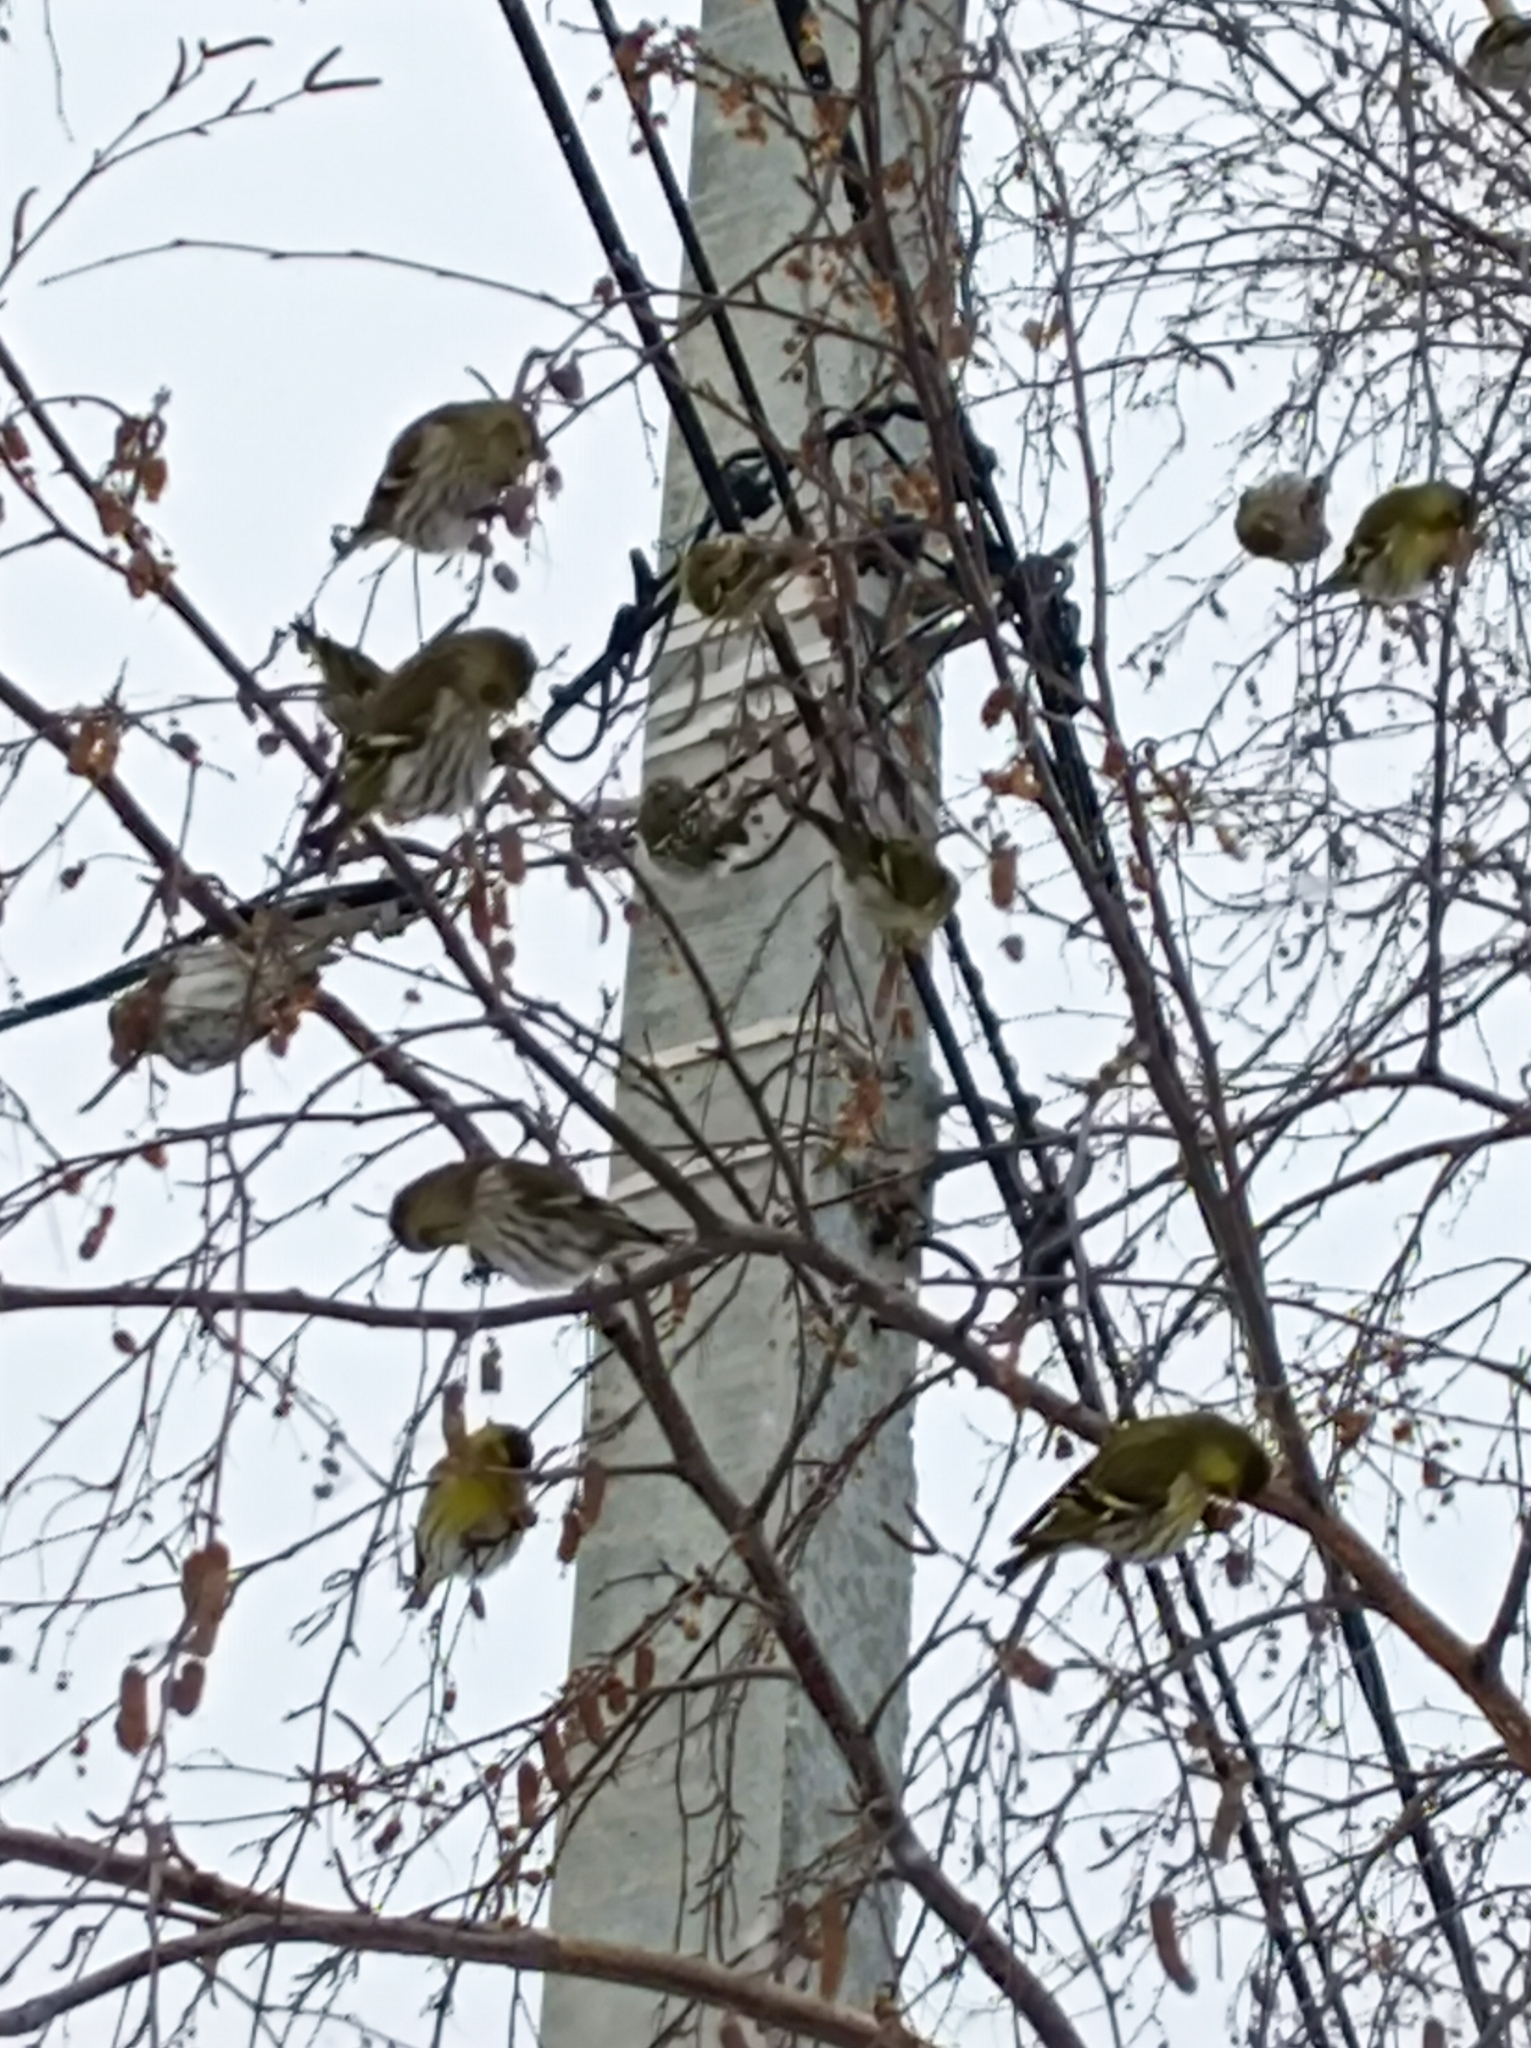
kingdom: Animalia
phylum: Chordata
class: Aves
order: Passeriformes
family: Fringillidae
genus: Spinus
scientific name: Spinus spinus
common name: Eurasian siskin
